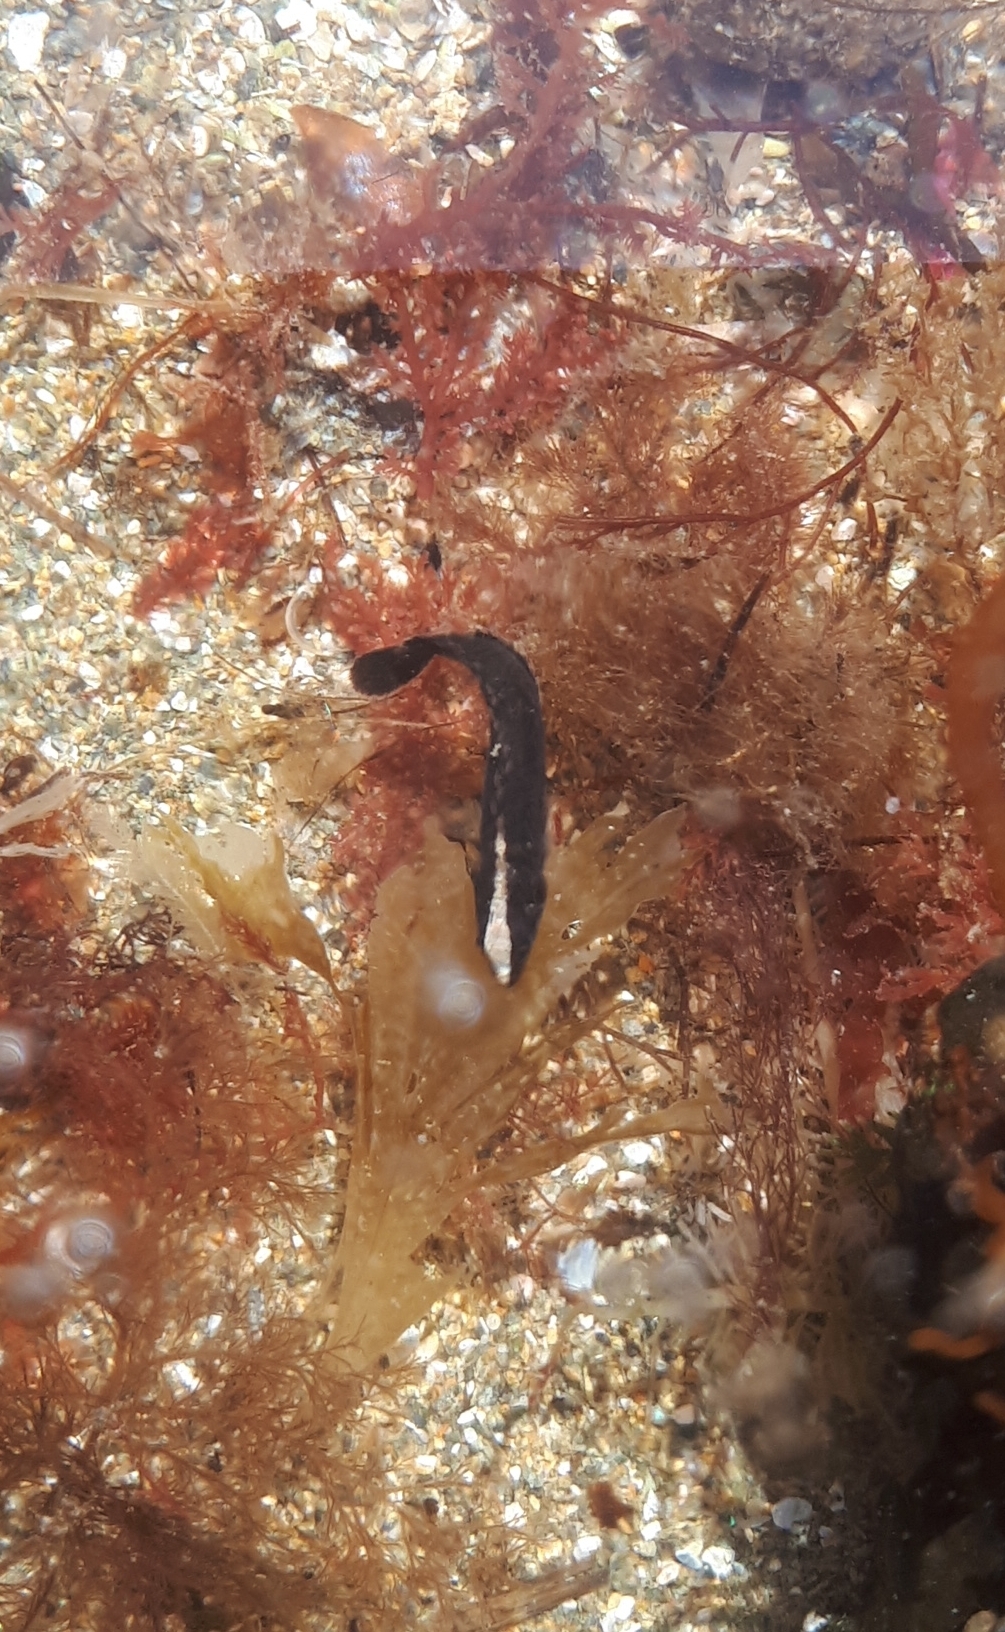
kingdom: Animalia
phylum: Chordata
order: Perciformes
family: Plesiopidae
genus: Acanthoclinus
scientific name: Acanthoclinus fuscus
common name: Olive rockfish
